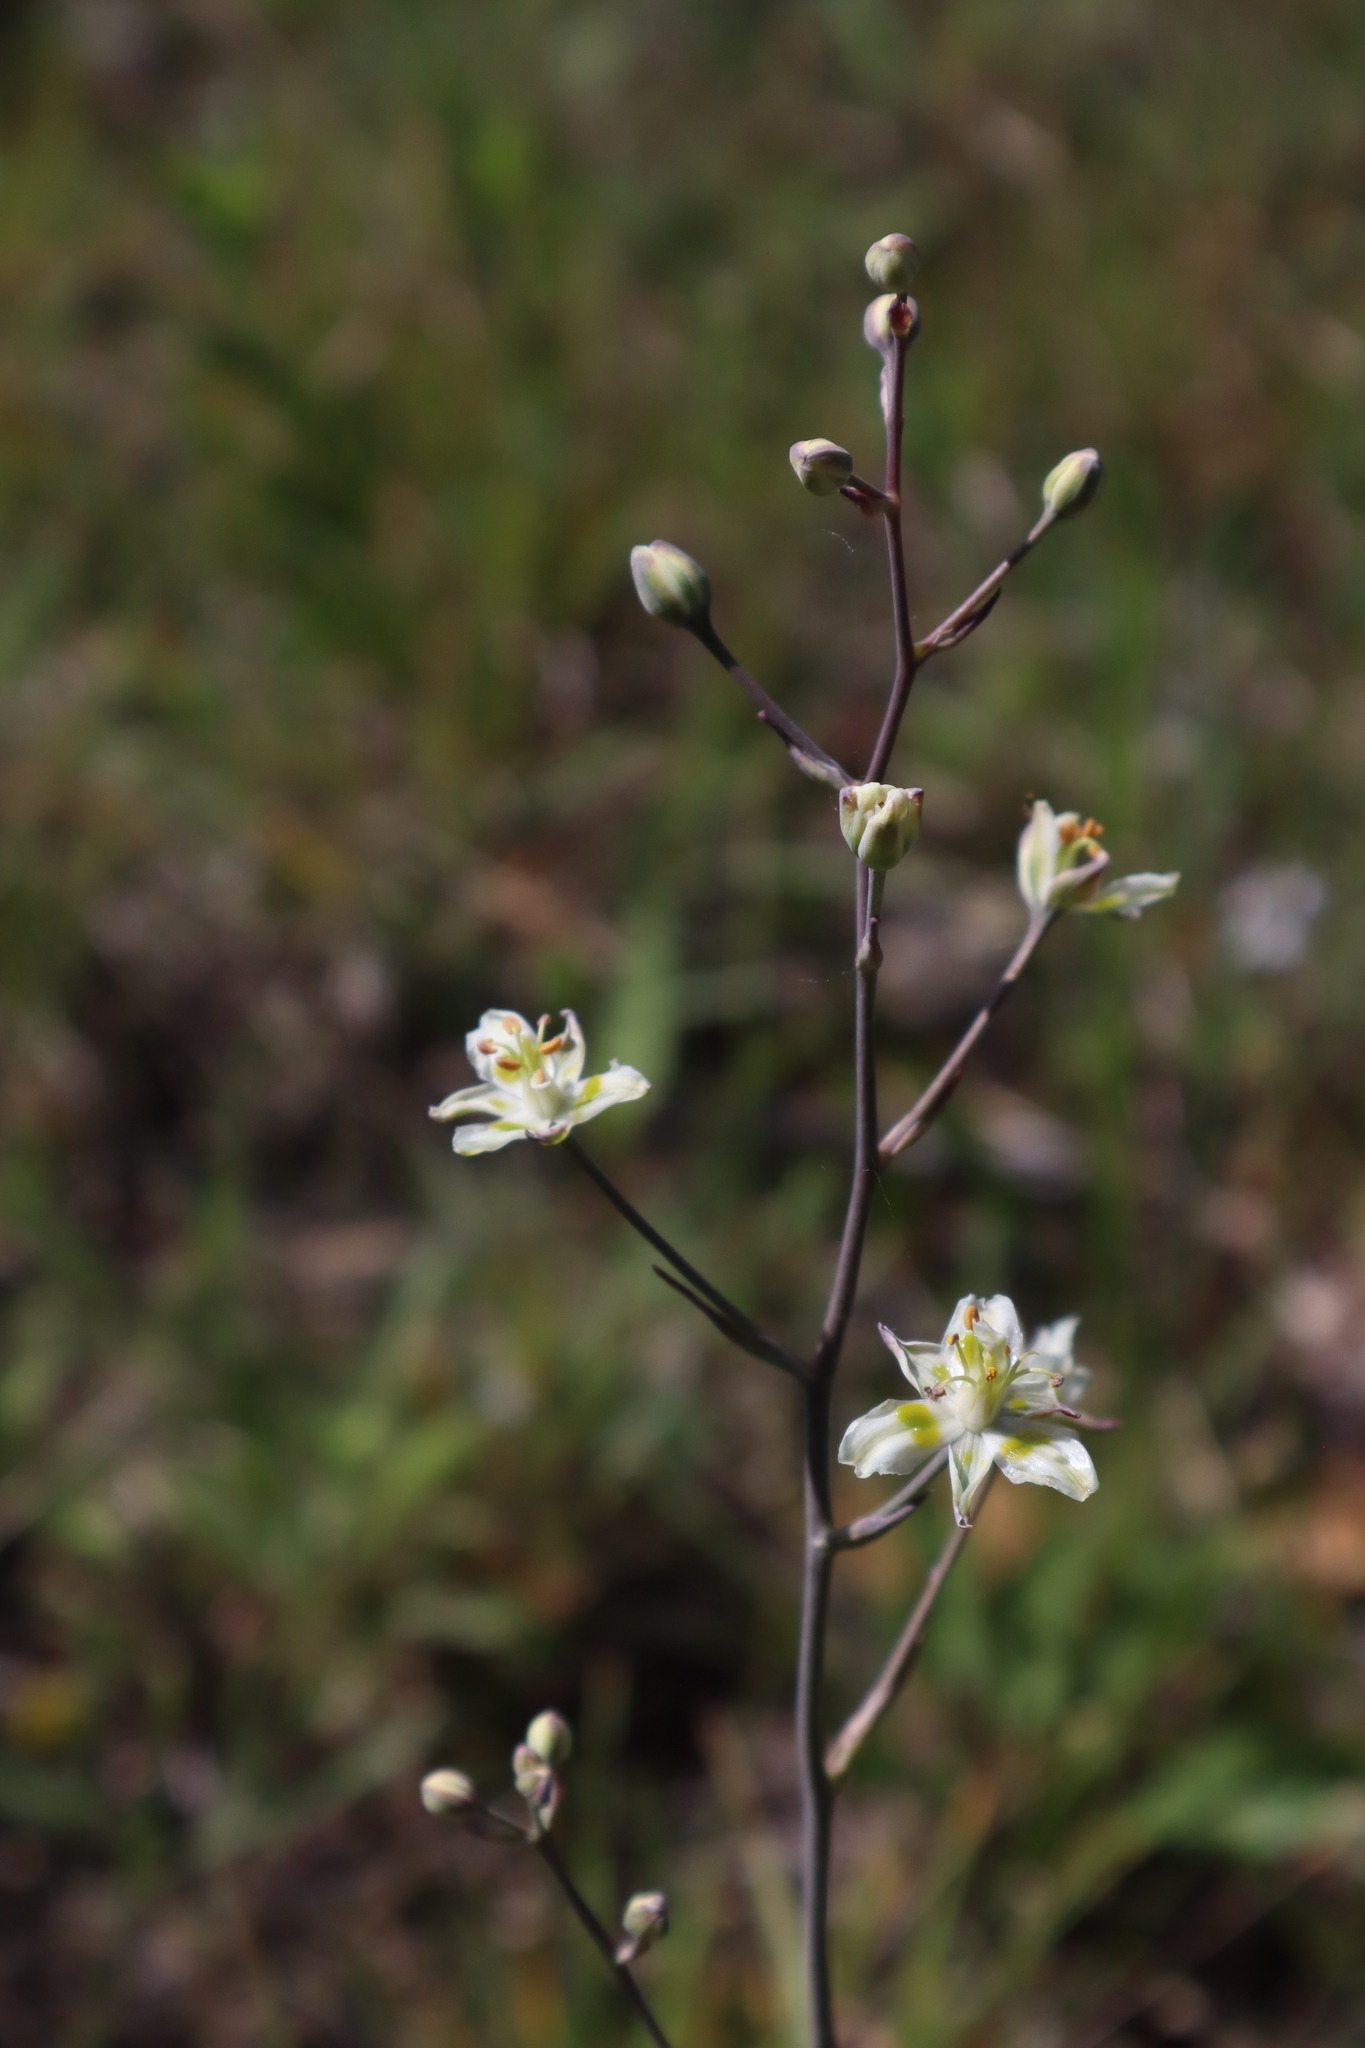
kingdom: Plantae
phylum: Tracheophyta
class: Liliopsida
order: Liliales
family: Melanthiaceae
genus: Anticlea
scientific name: Anticlea elegans
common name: Mountain death camas
